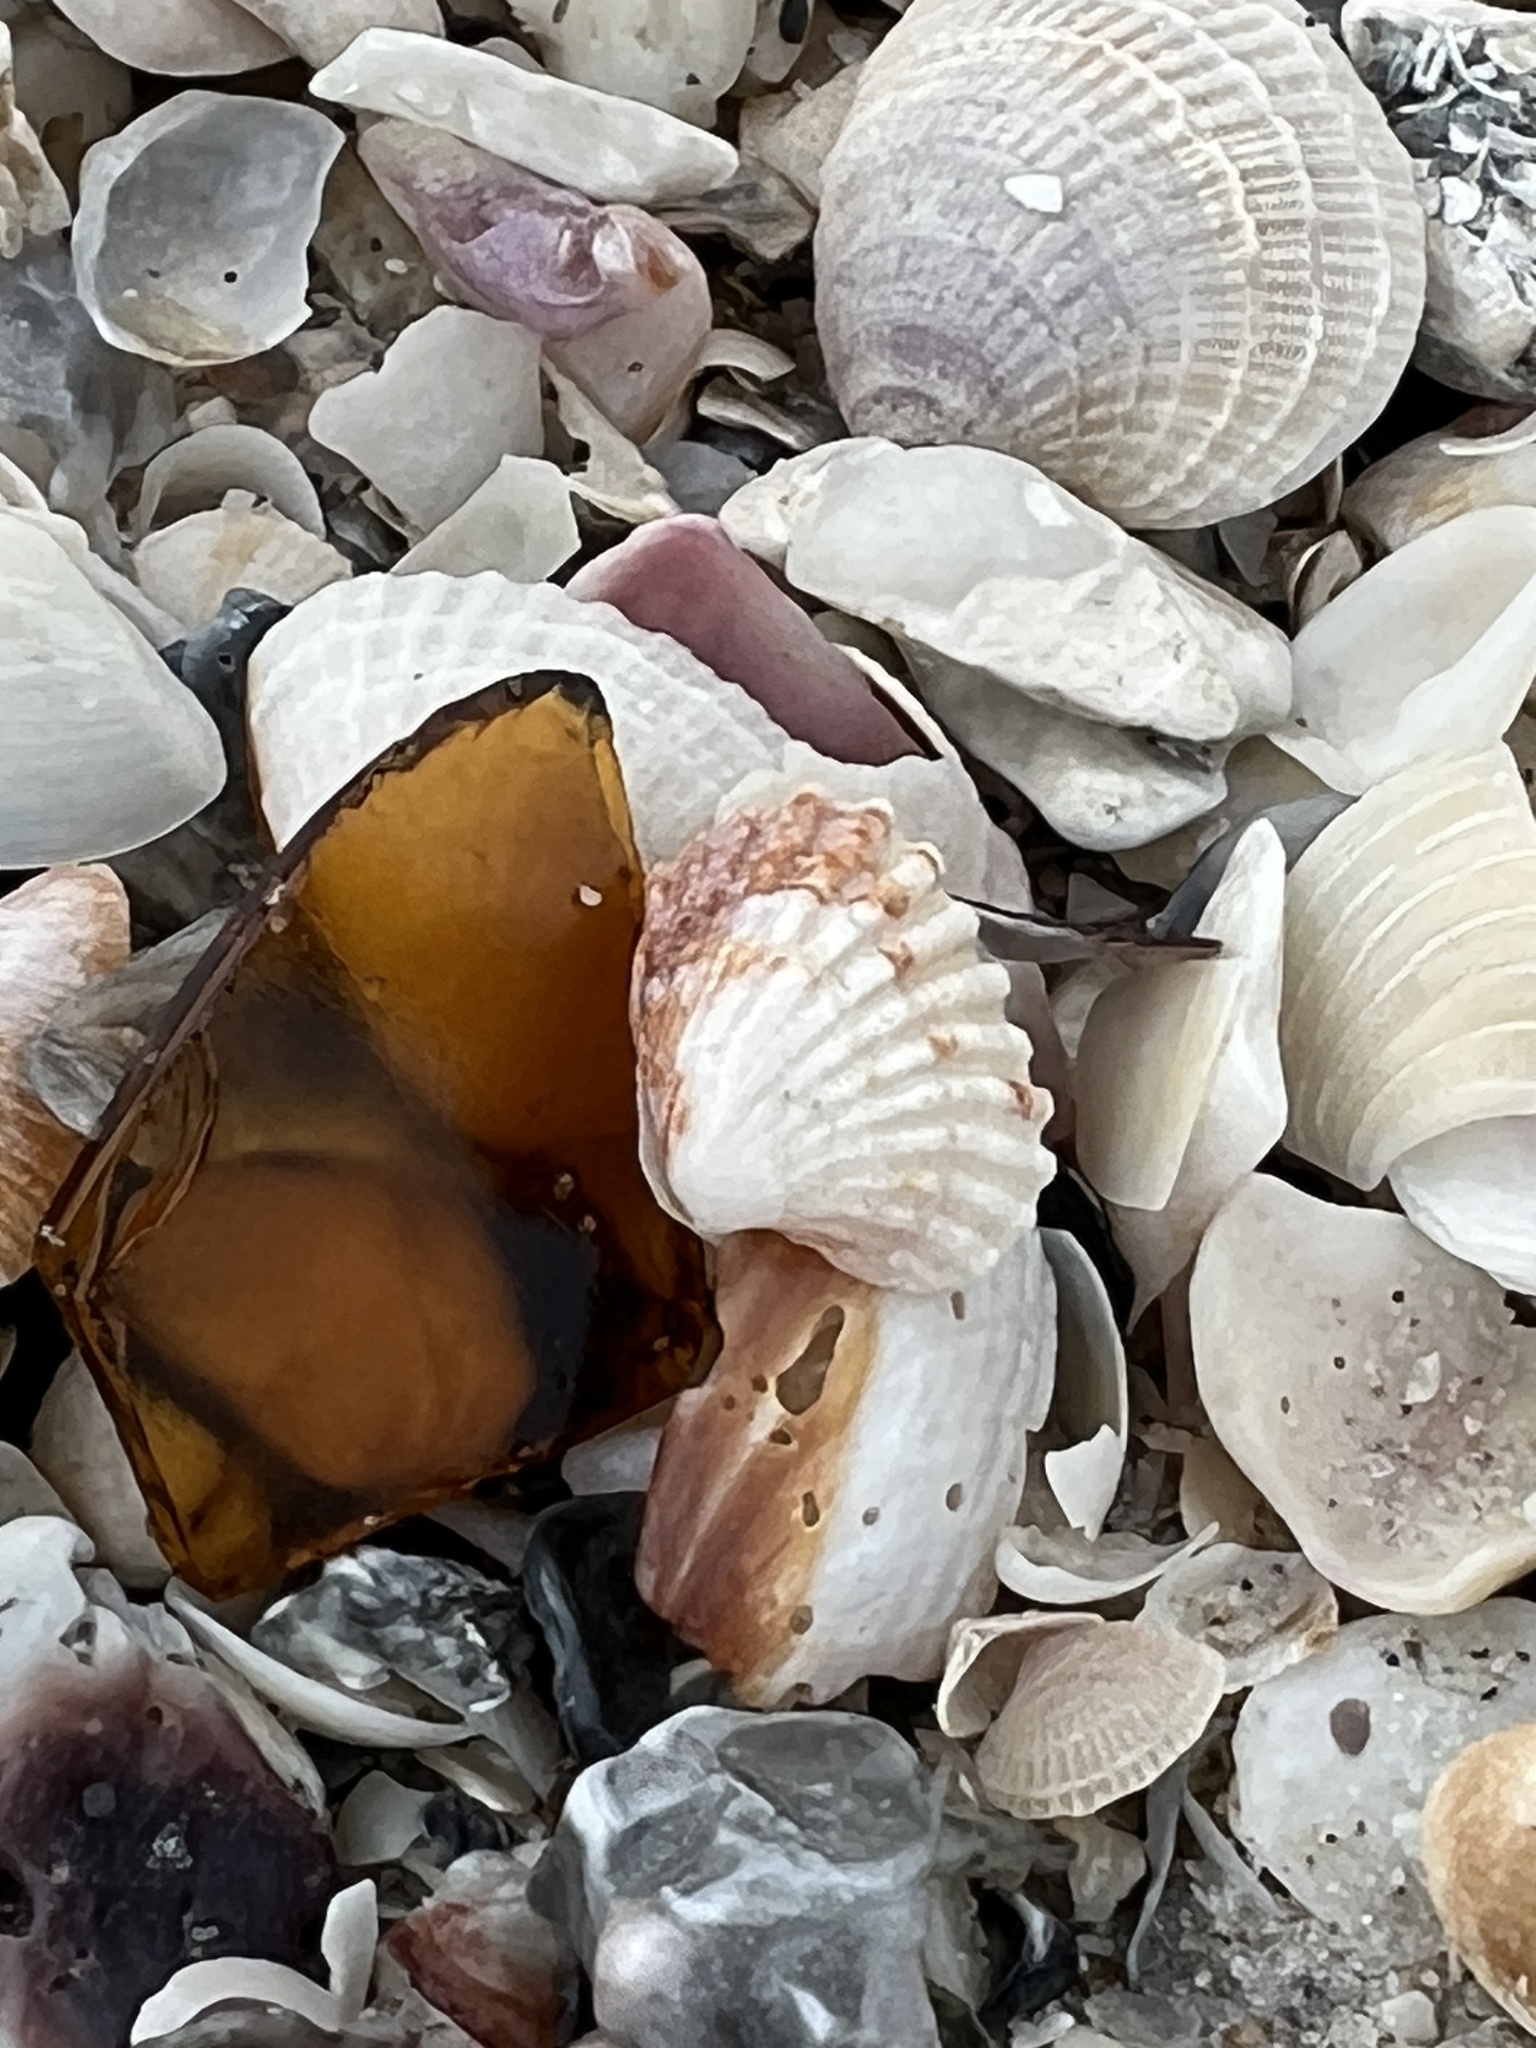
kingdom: Animalia
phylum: Mollusca
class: Bivalvia
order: Carditida
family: Carditidae
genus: Cardites
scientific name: Cardites floridanus
